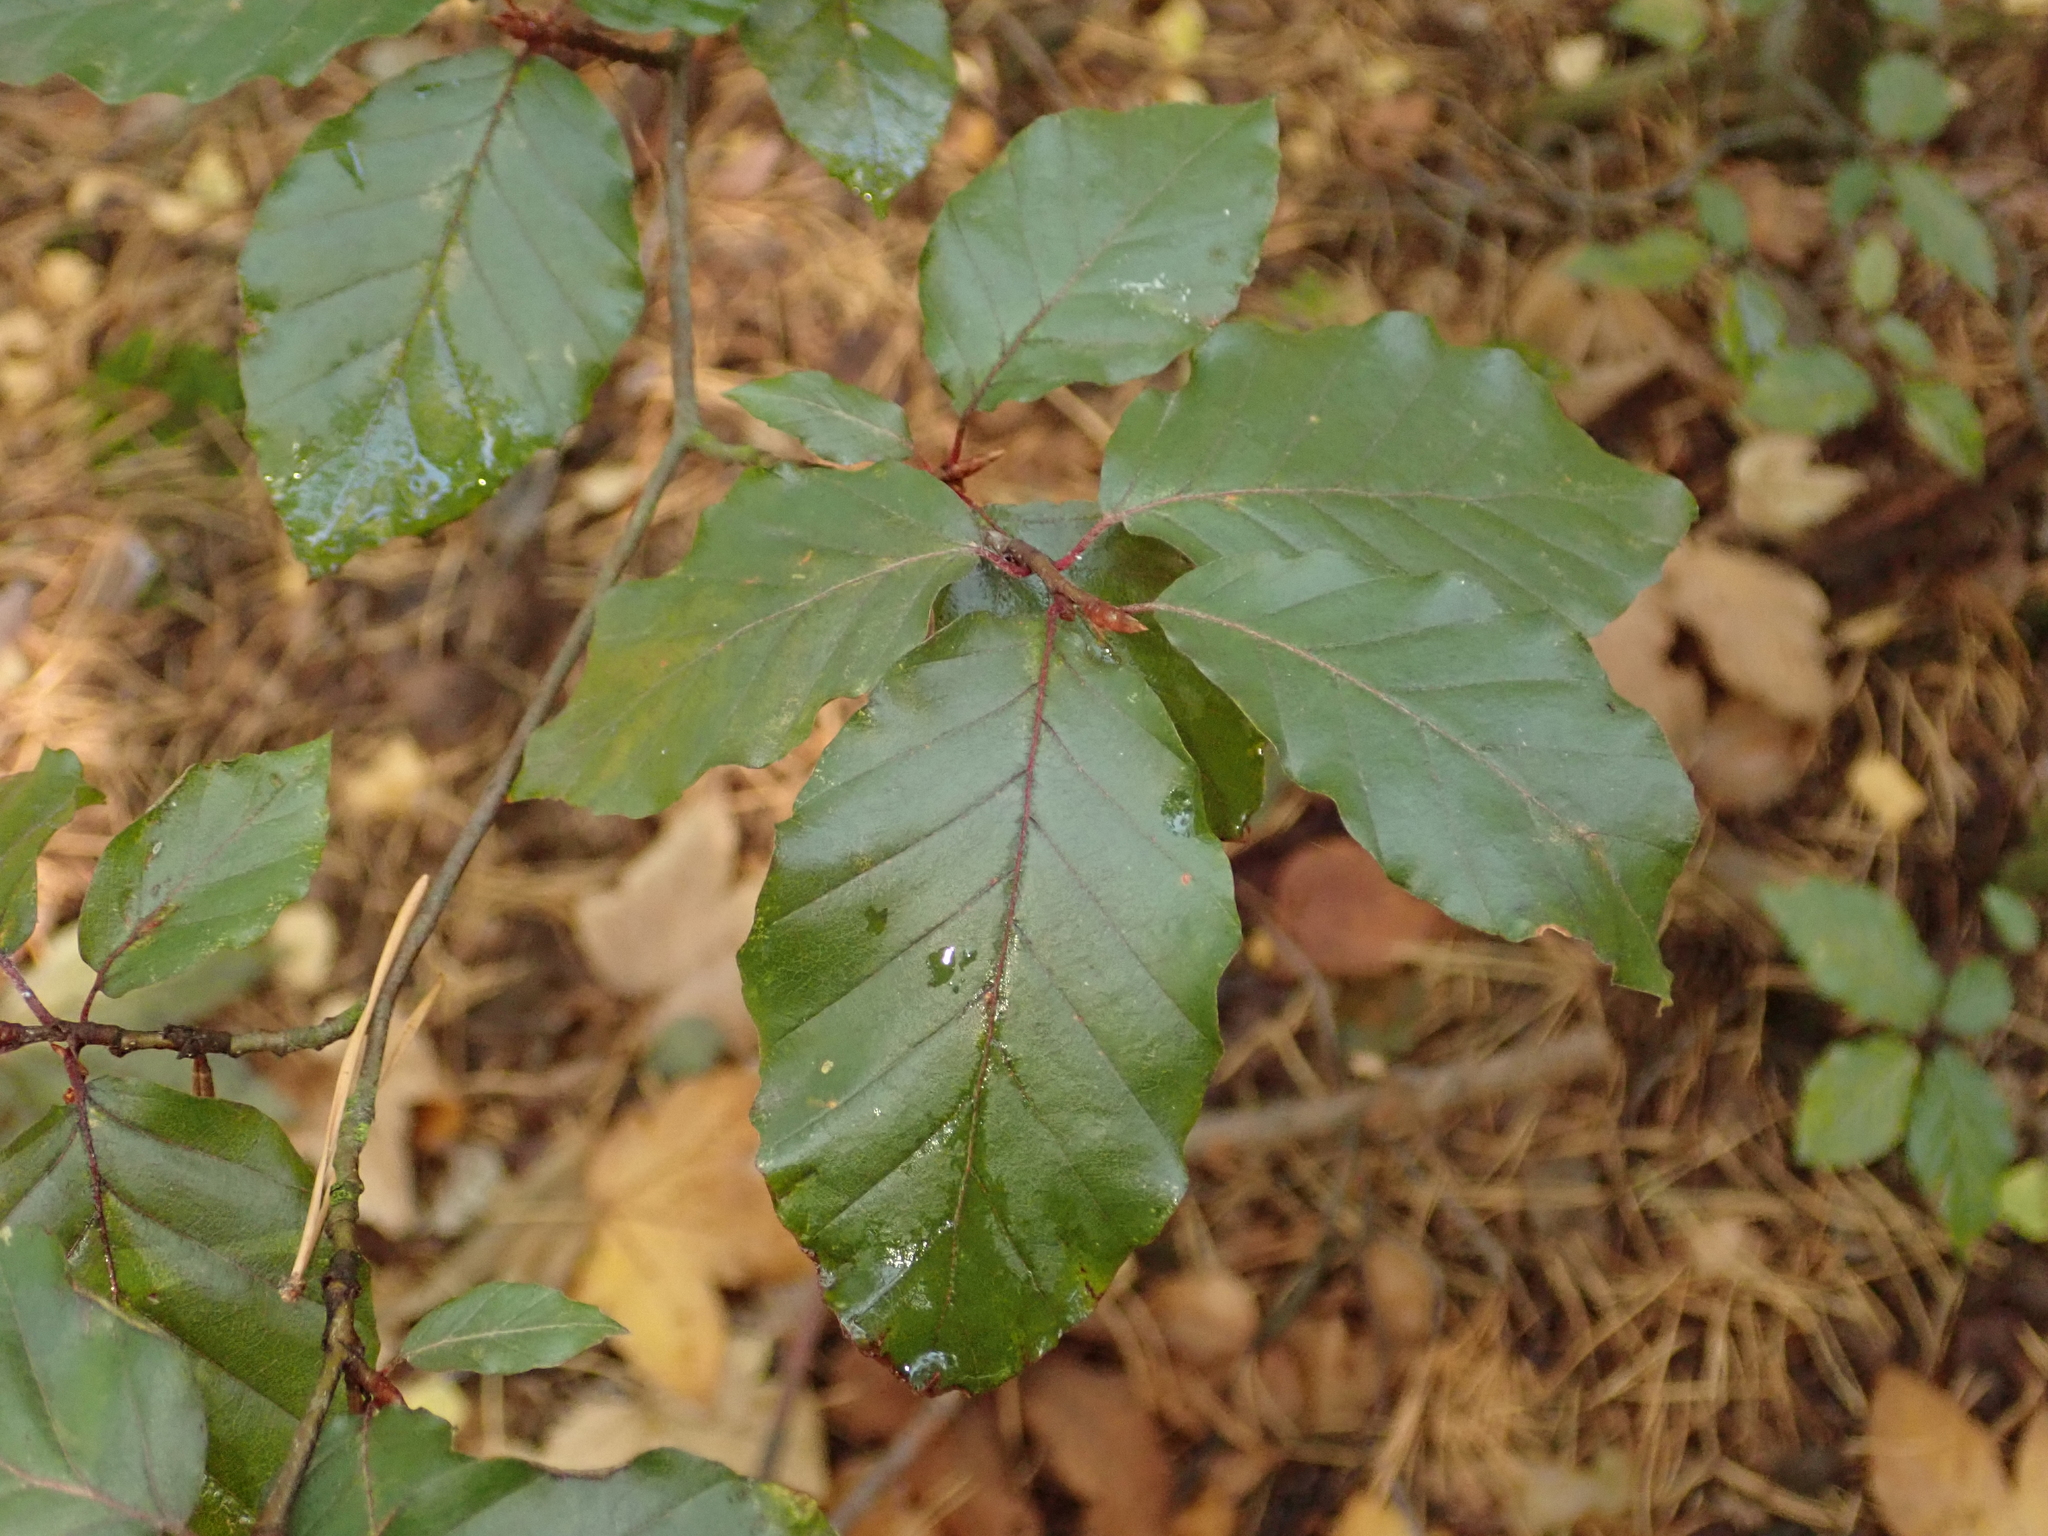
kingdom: Plantae
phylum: Tracheophyta
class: Magnoliopsida
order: Fagales
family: Fagaceae
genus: Fagus
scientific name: Fagus sylvatica
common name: Beech
